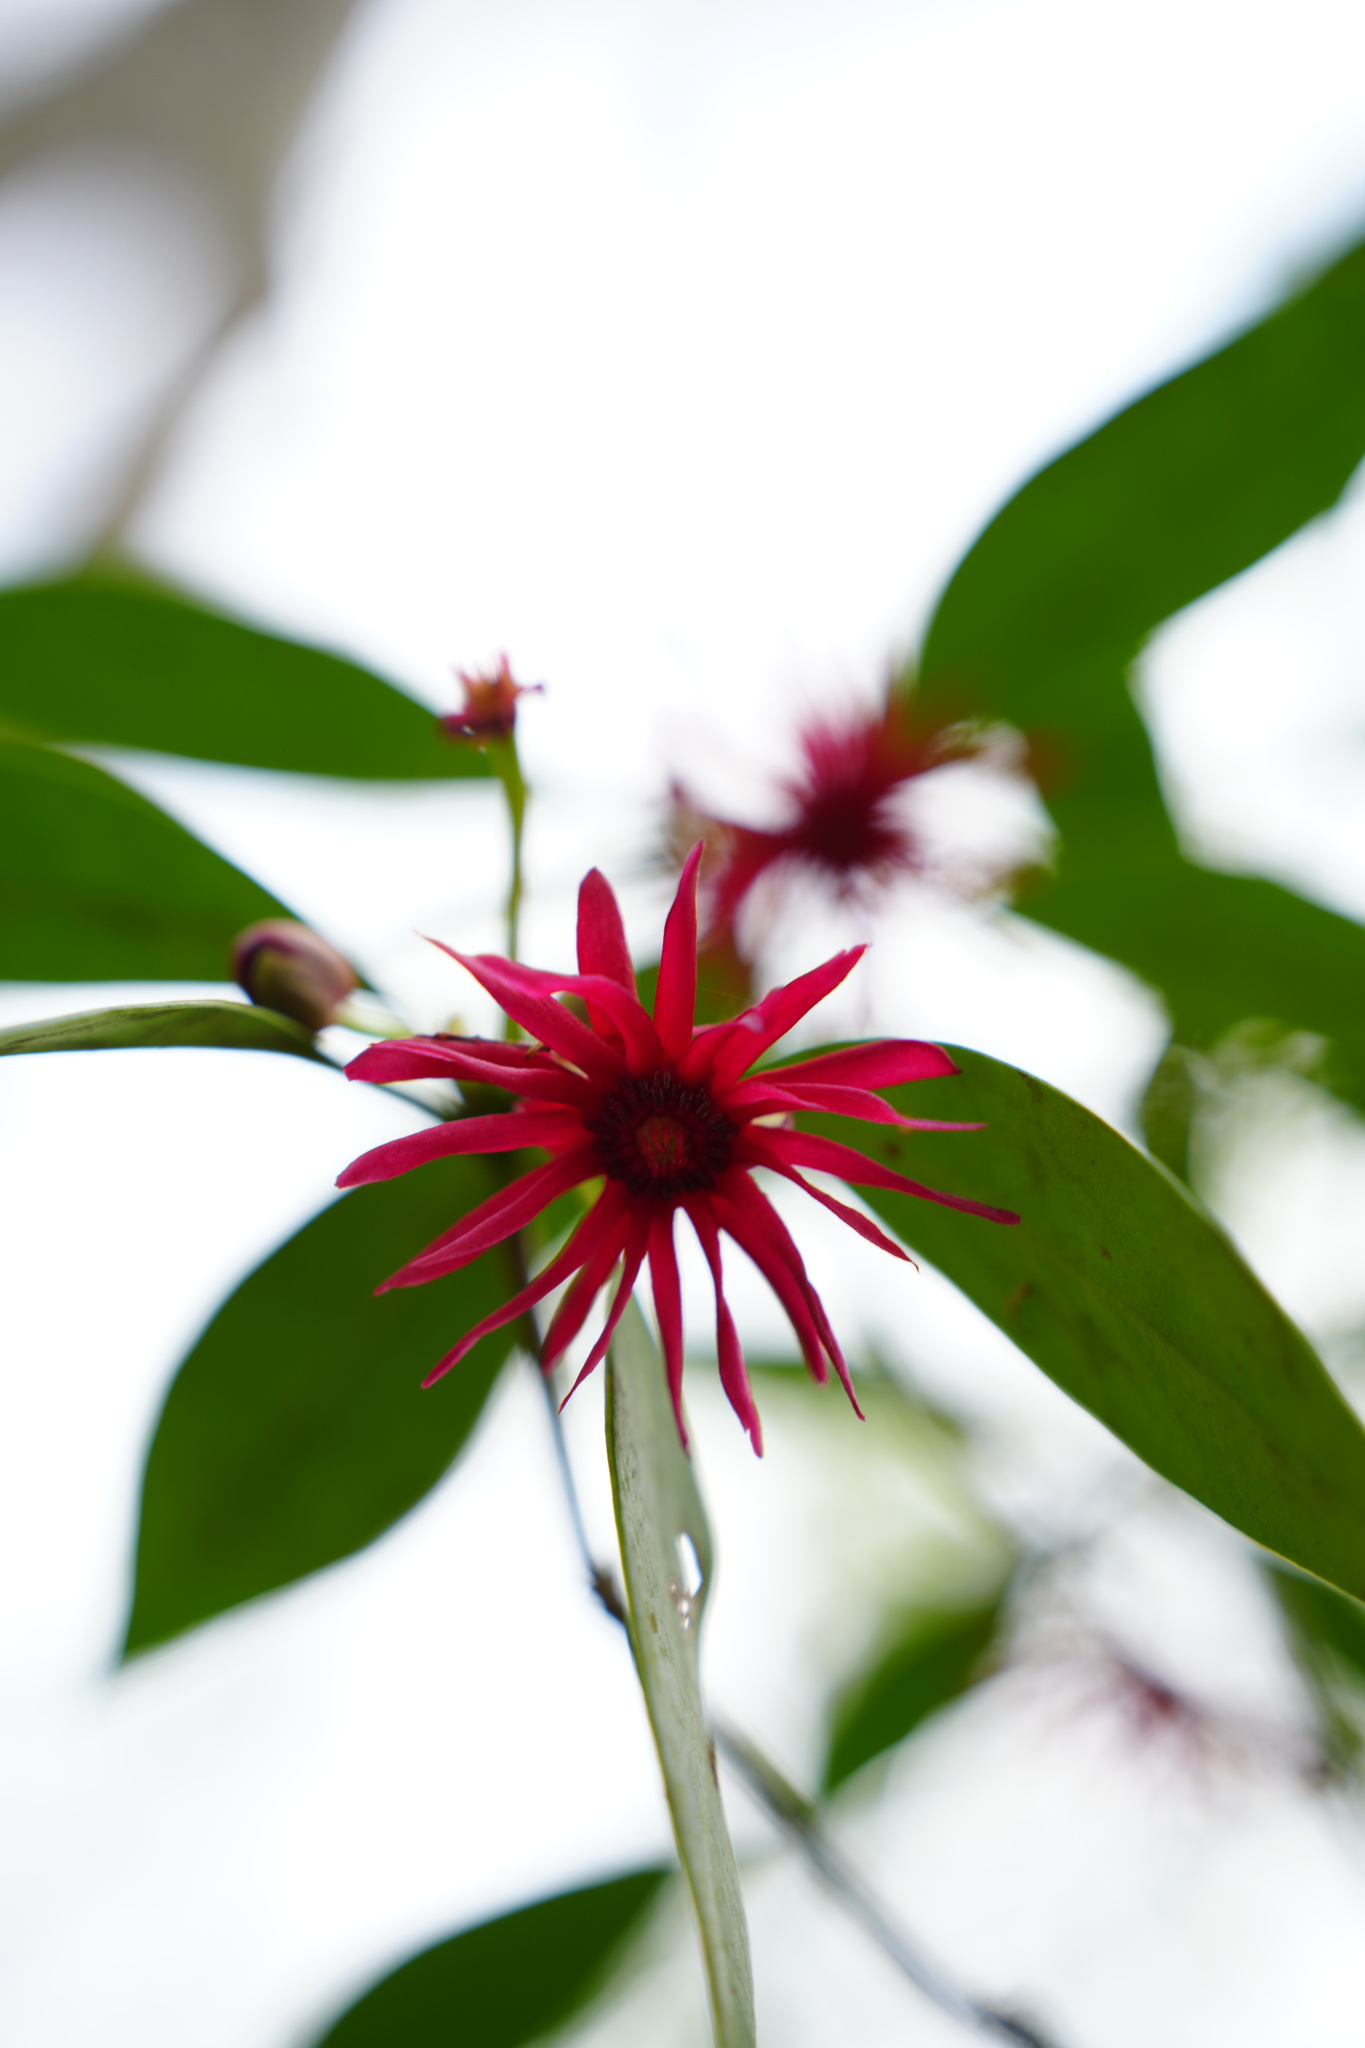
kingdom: Plantae
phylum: Tracheophyta
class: Magnoliopsida
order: Austrobaileyales
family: Schisandraceae
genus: Illicium
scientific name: Illicium floridanum
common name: Florida anisetree
